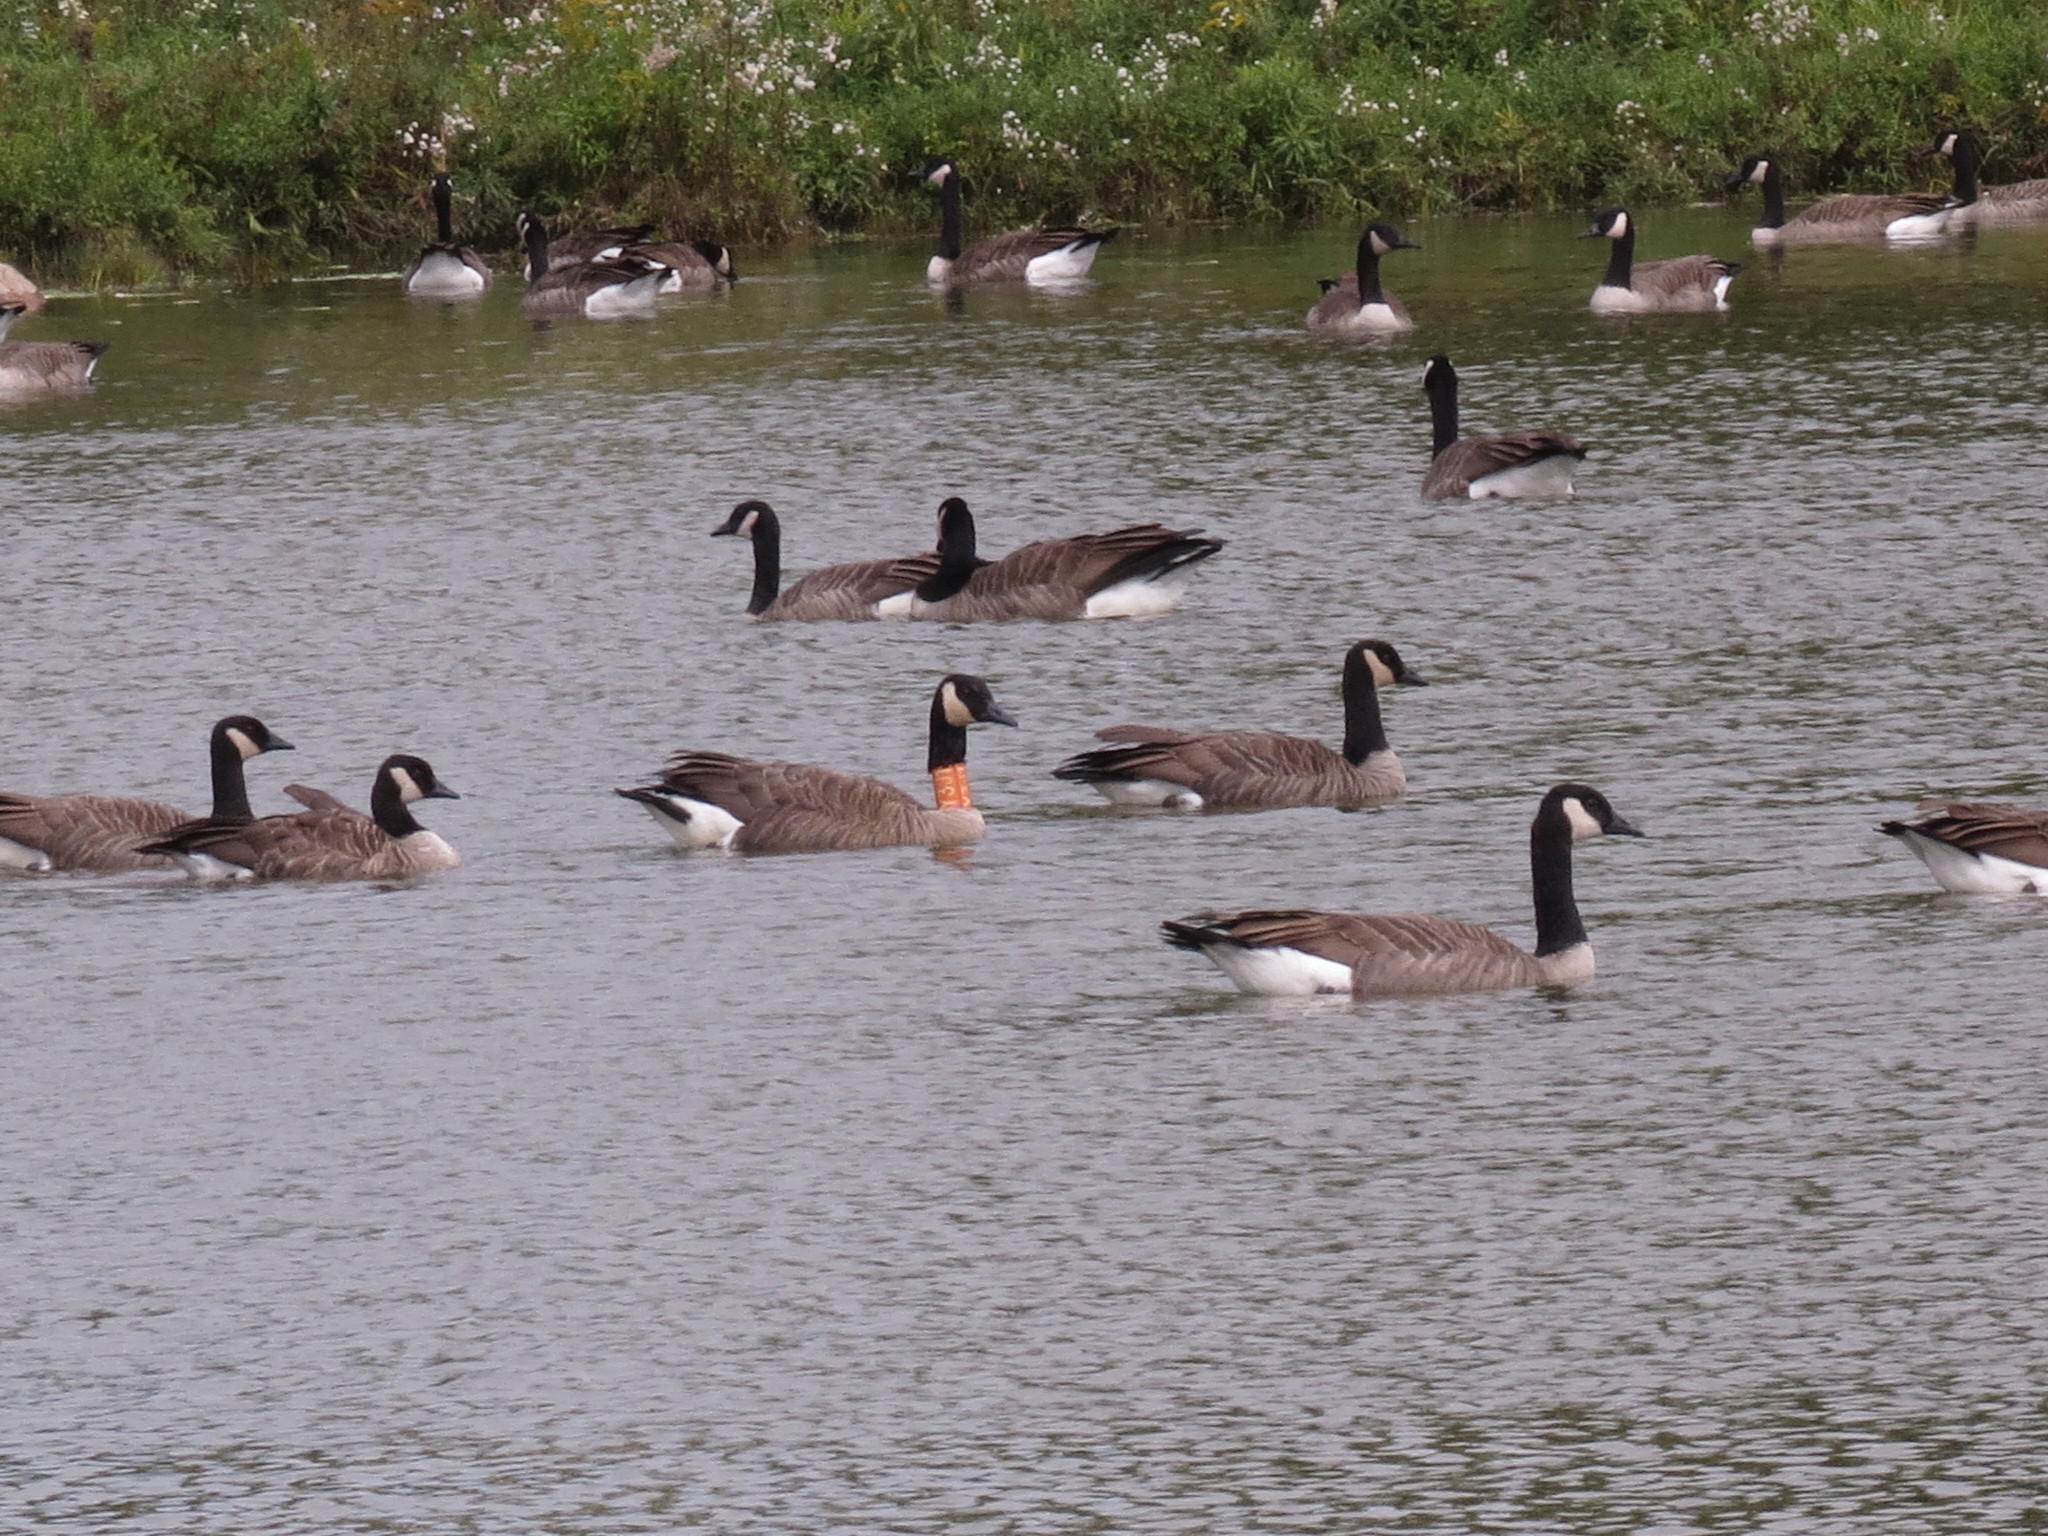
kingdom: Animalia
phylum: Chordata
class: Aves
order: Anseriformes
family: Anatidae
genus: Branta
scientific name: Branta canadensis
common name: Canada goose
